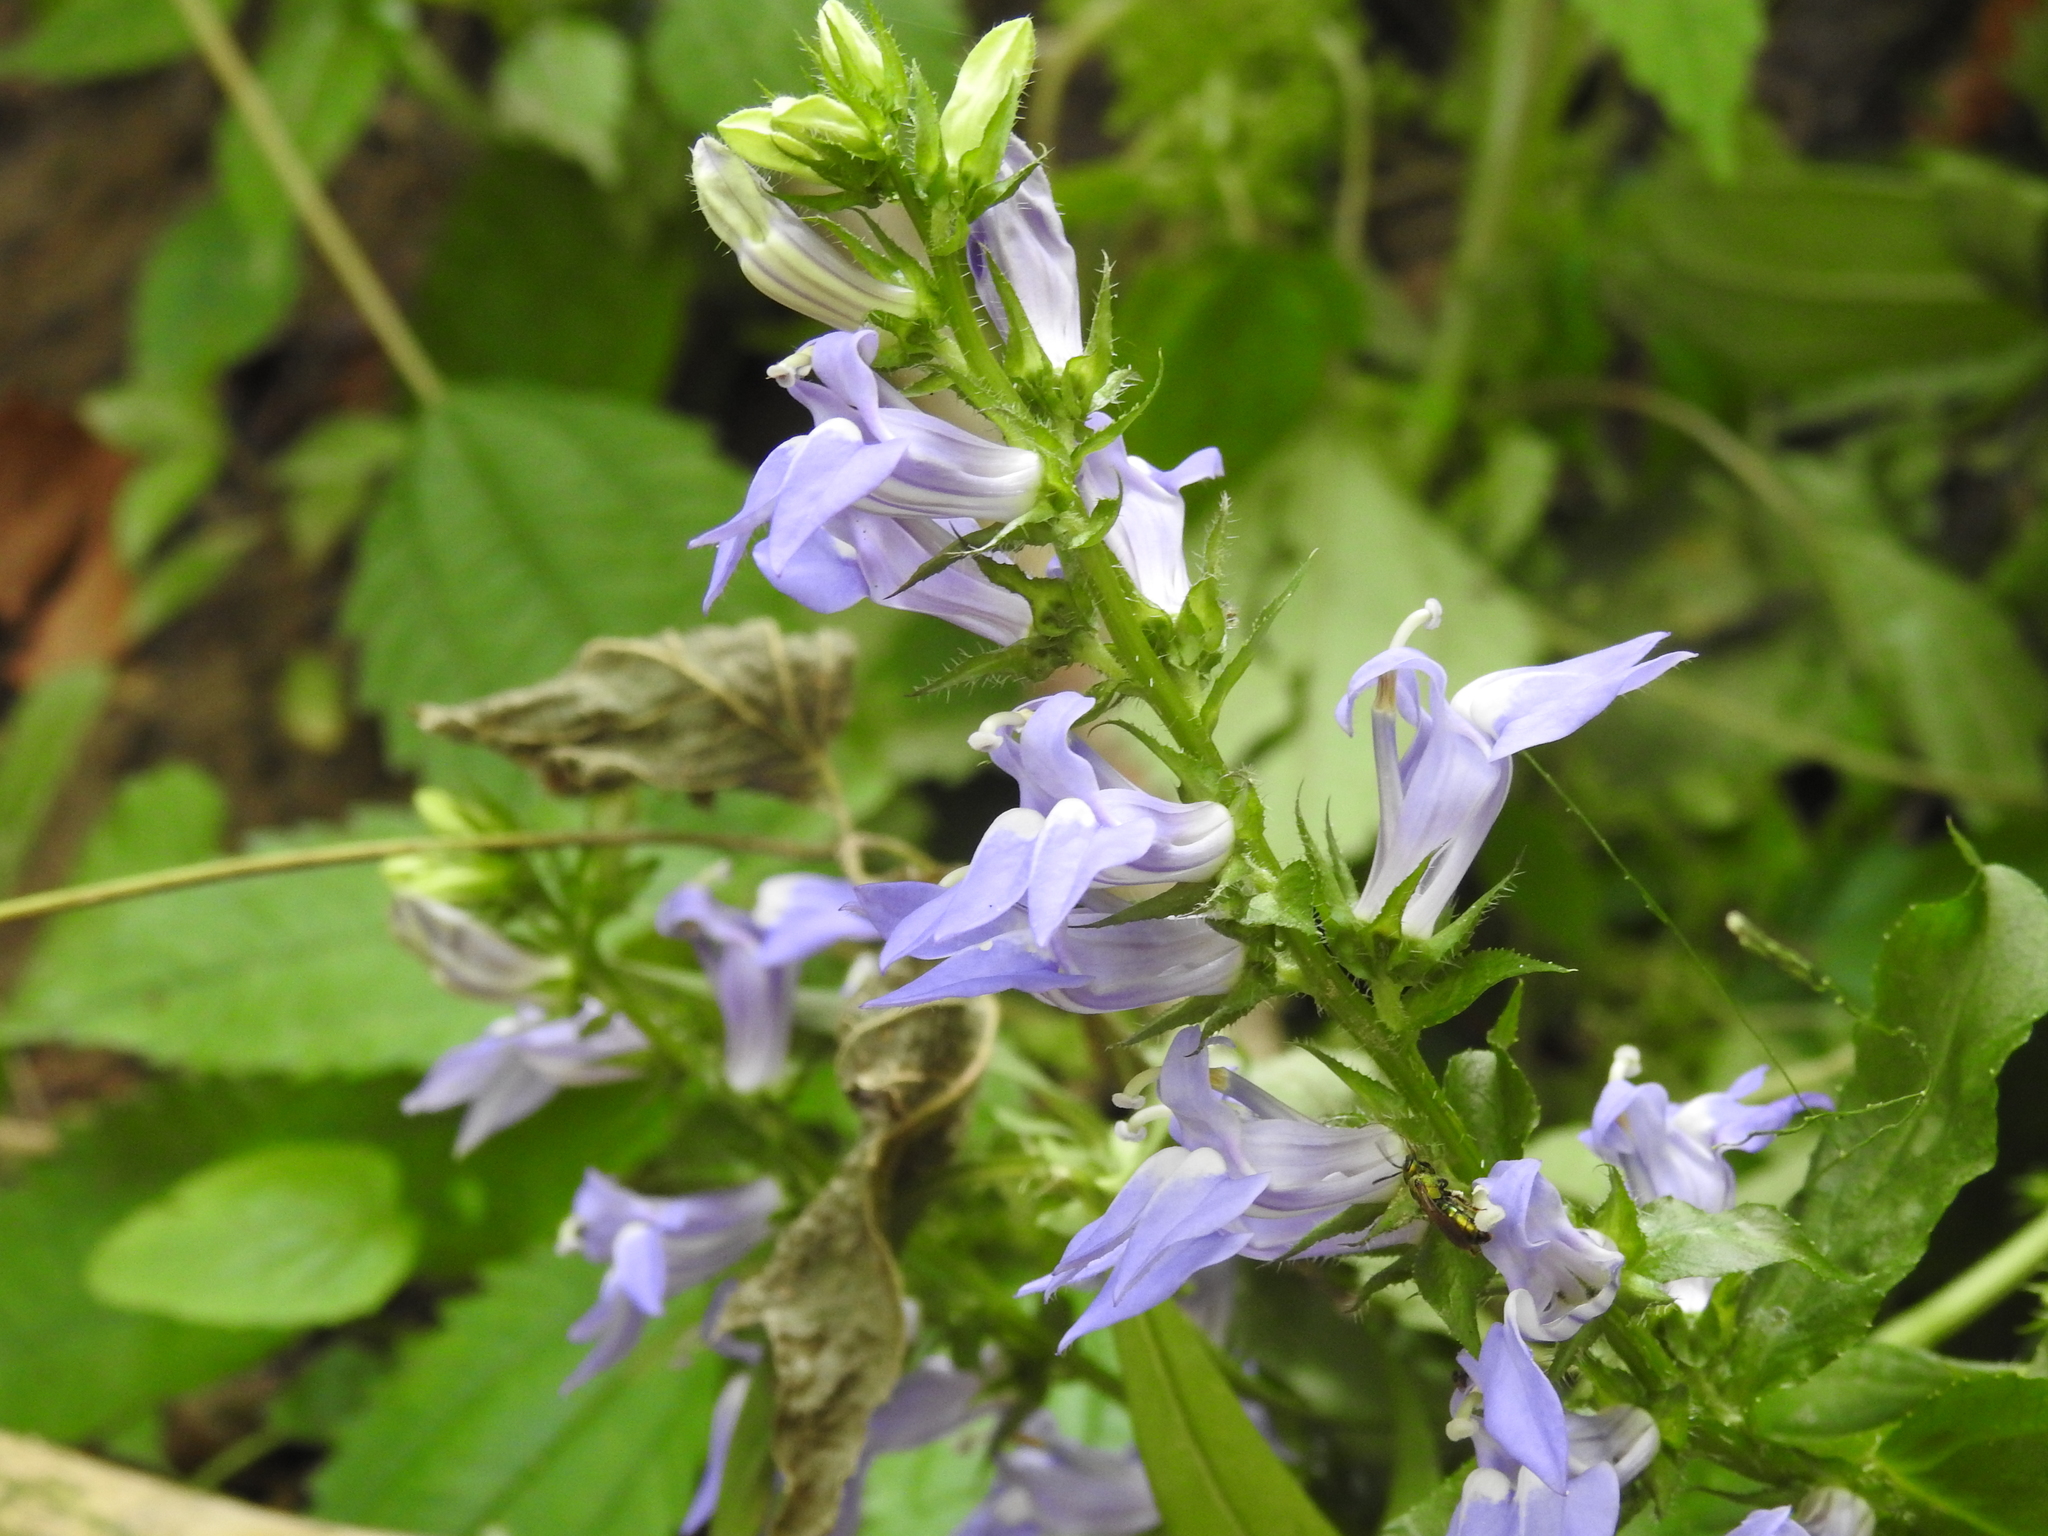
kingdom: Plantae
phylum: Tracheophyta
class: Magnoliopsida
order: Asterales
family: Campanulaceae
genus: Lobelia
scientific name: Lobelia siphilitica
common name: Great lobelia
